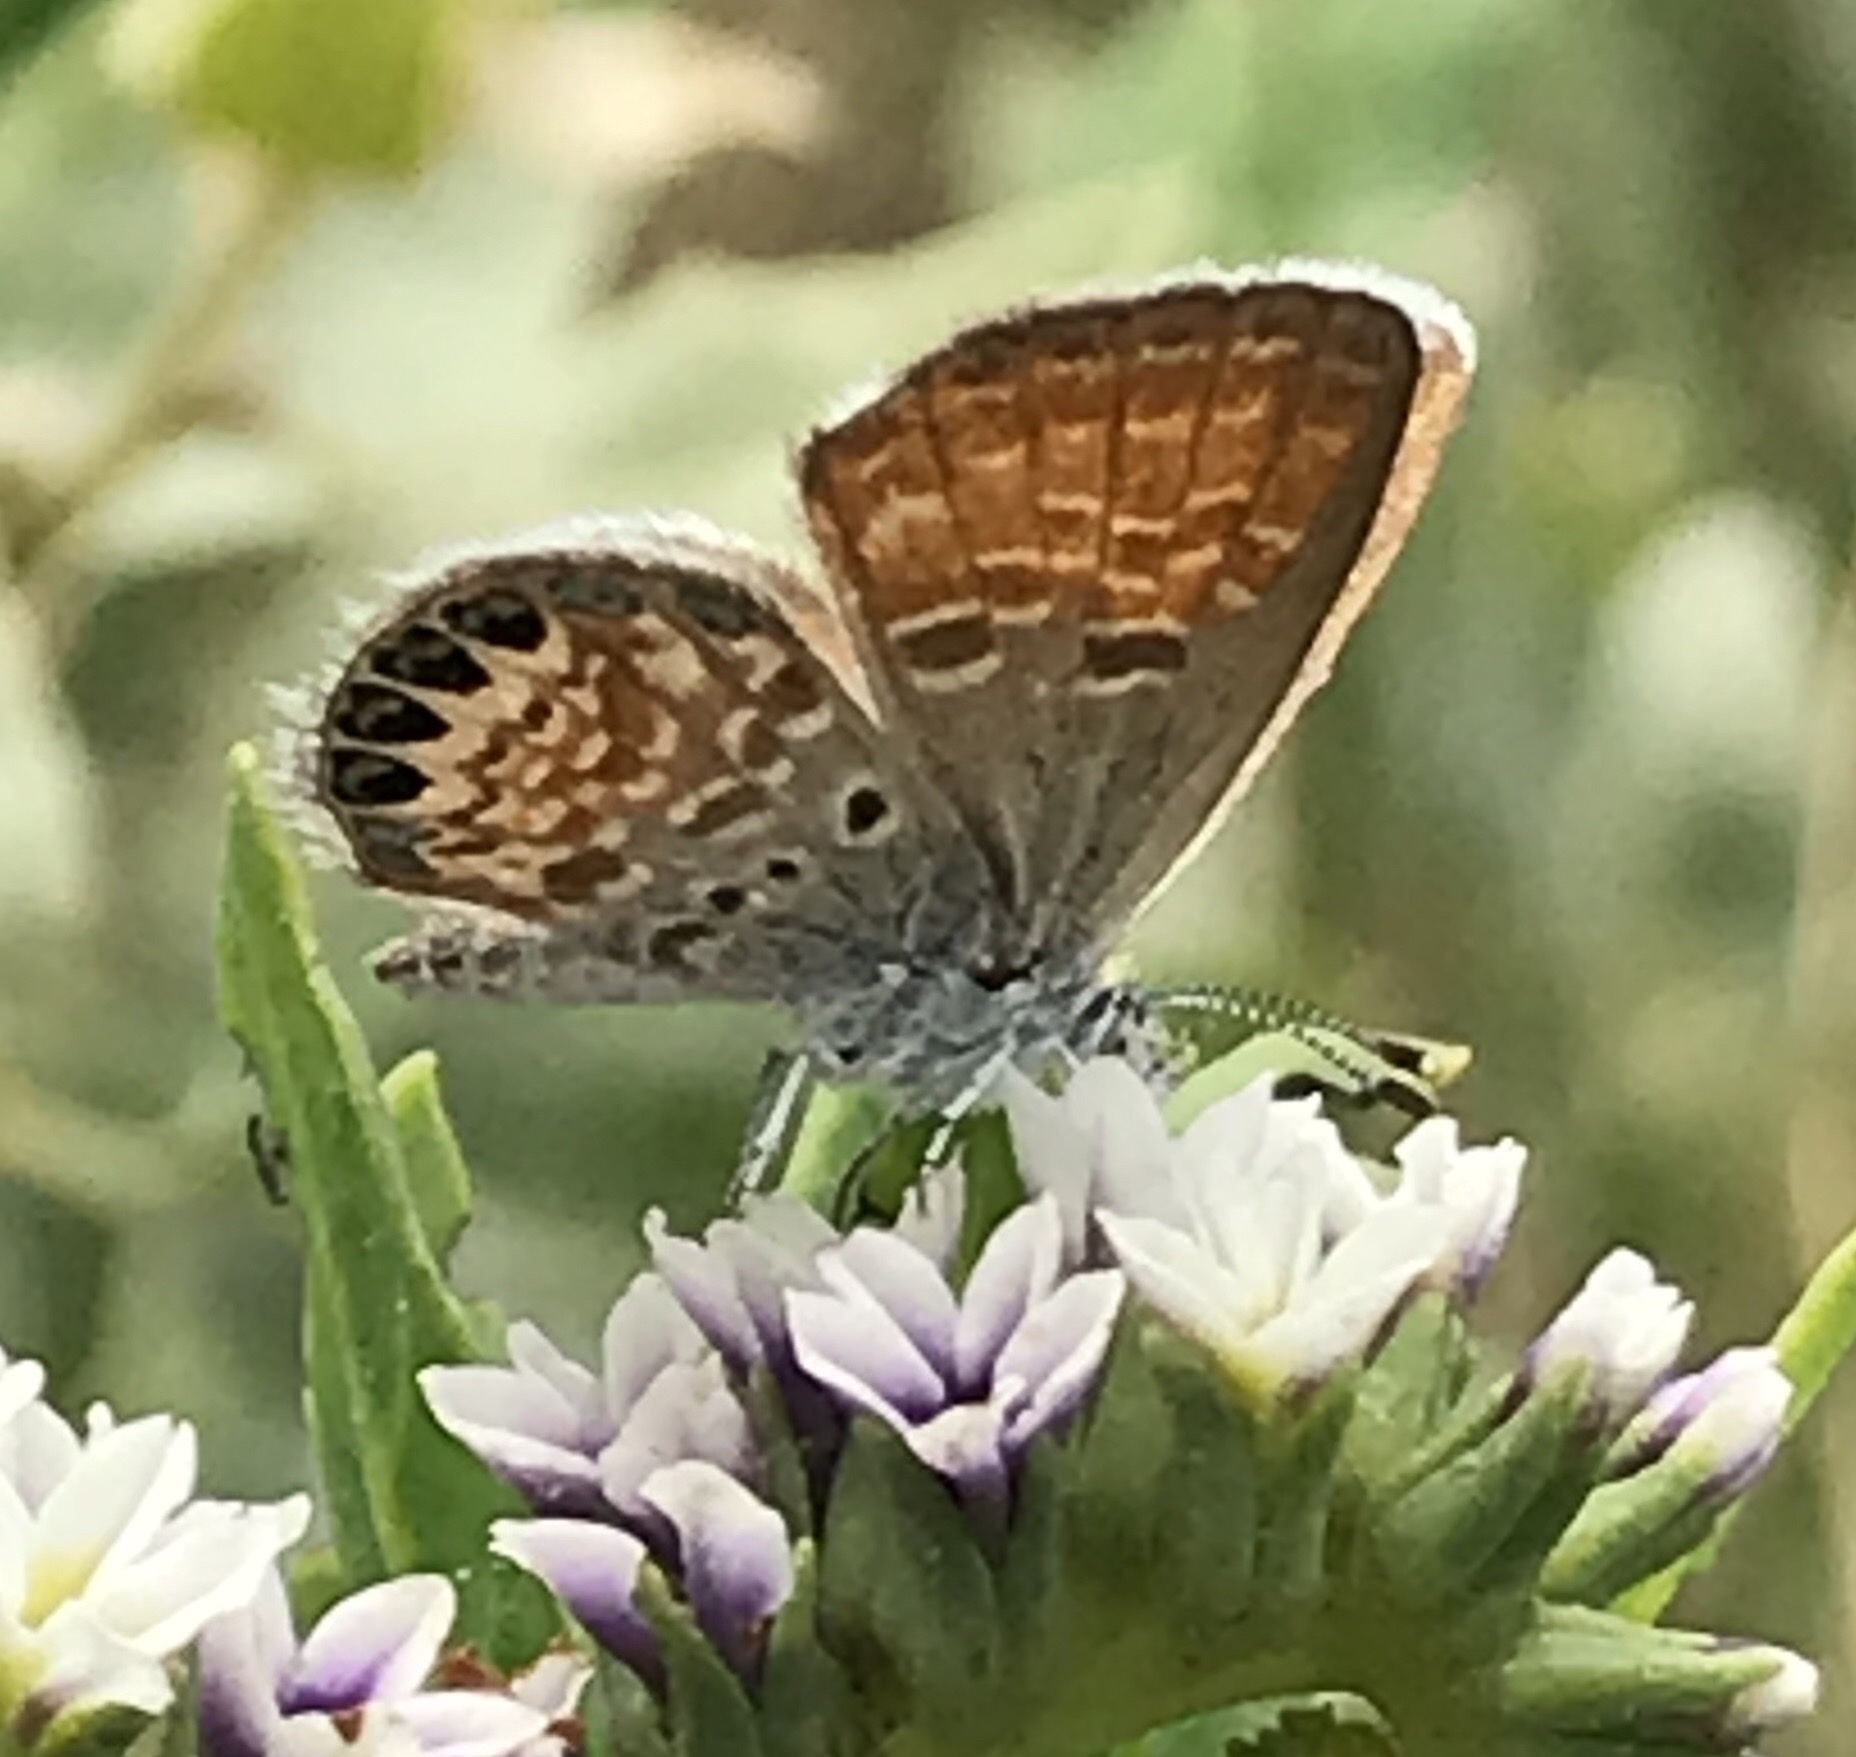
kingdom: Animalia
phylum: Arthropoda
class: Insecta
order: Lepidoptera
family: Lycaenidae
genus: Brephidium
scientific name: Brephidium exilis
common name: Pygmy blue
